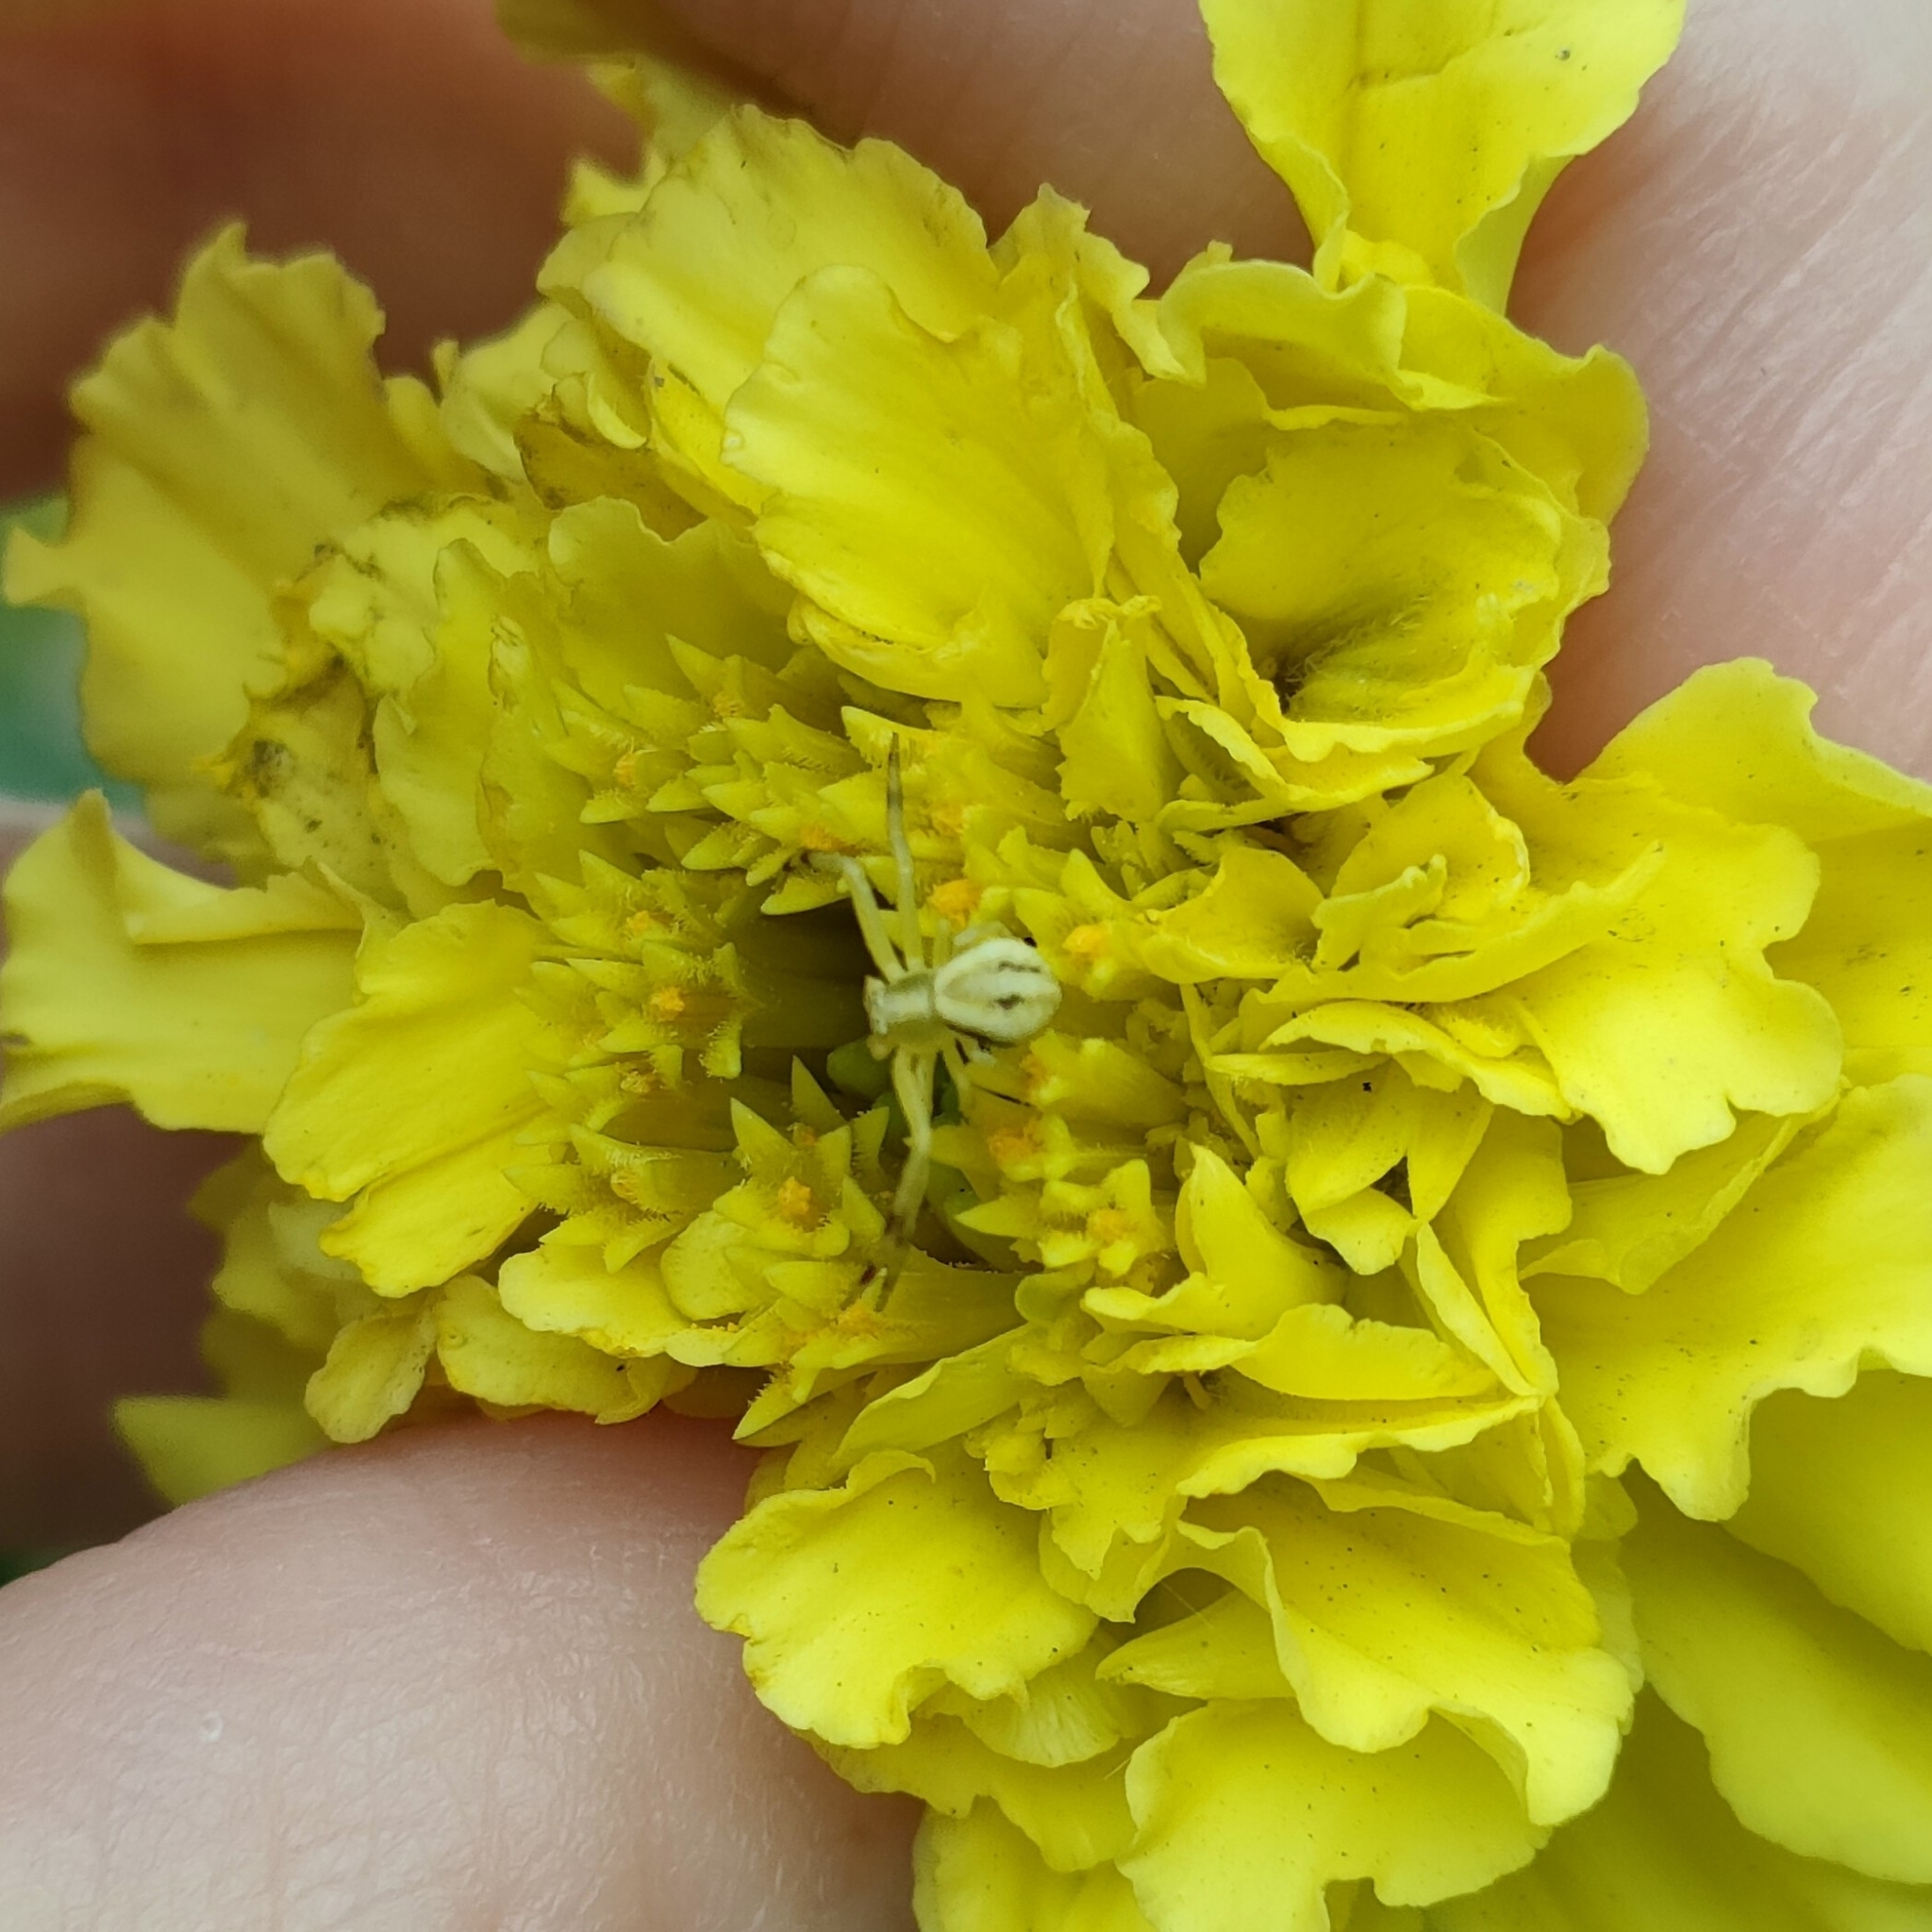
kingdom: Animalia
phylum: Arthropoda
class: Arachnida
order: Araneae
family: Thomisidae
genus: Misumena
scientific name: Misumena vatia
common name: Goldenrod crab spider
